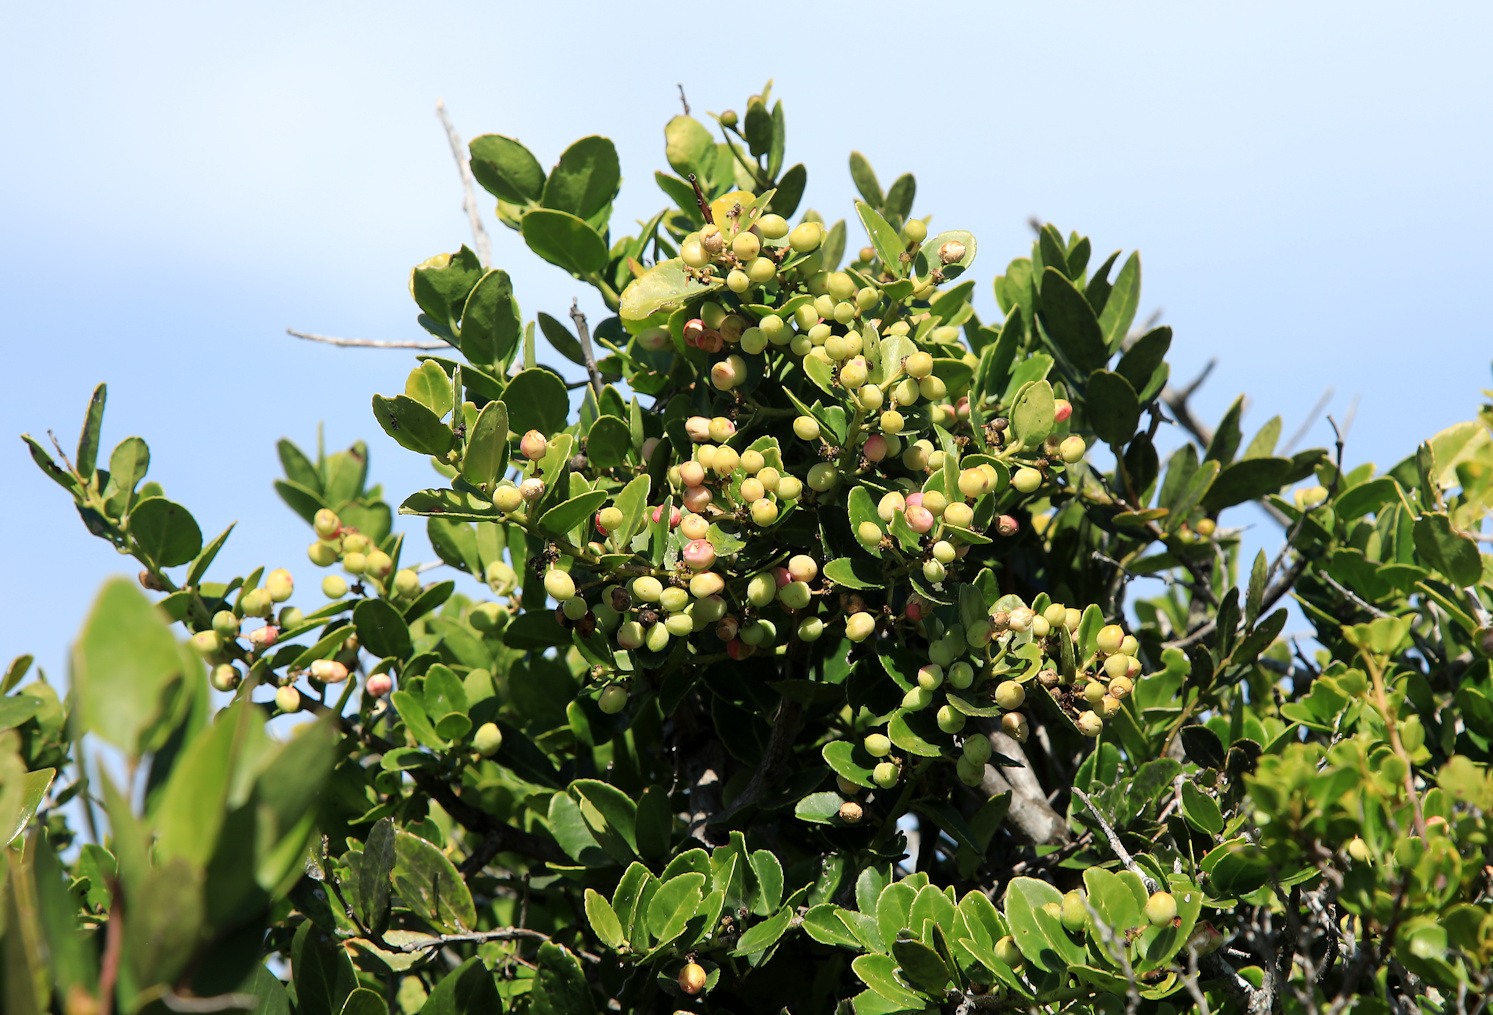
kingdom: Plantae
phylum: Tracheophyta
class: Magnoliopsida
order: Celastrales
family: Celastraceae
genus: Mystroxylon
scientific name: Mystroxylon aethiopicum
